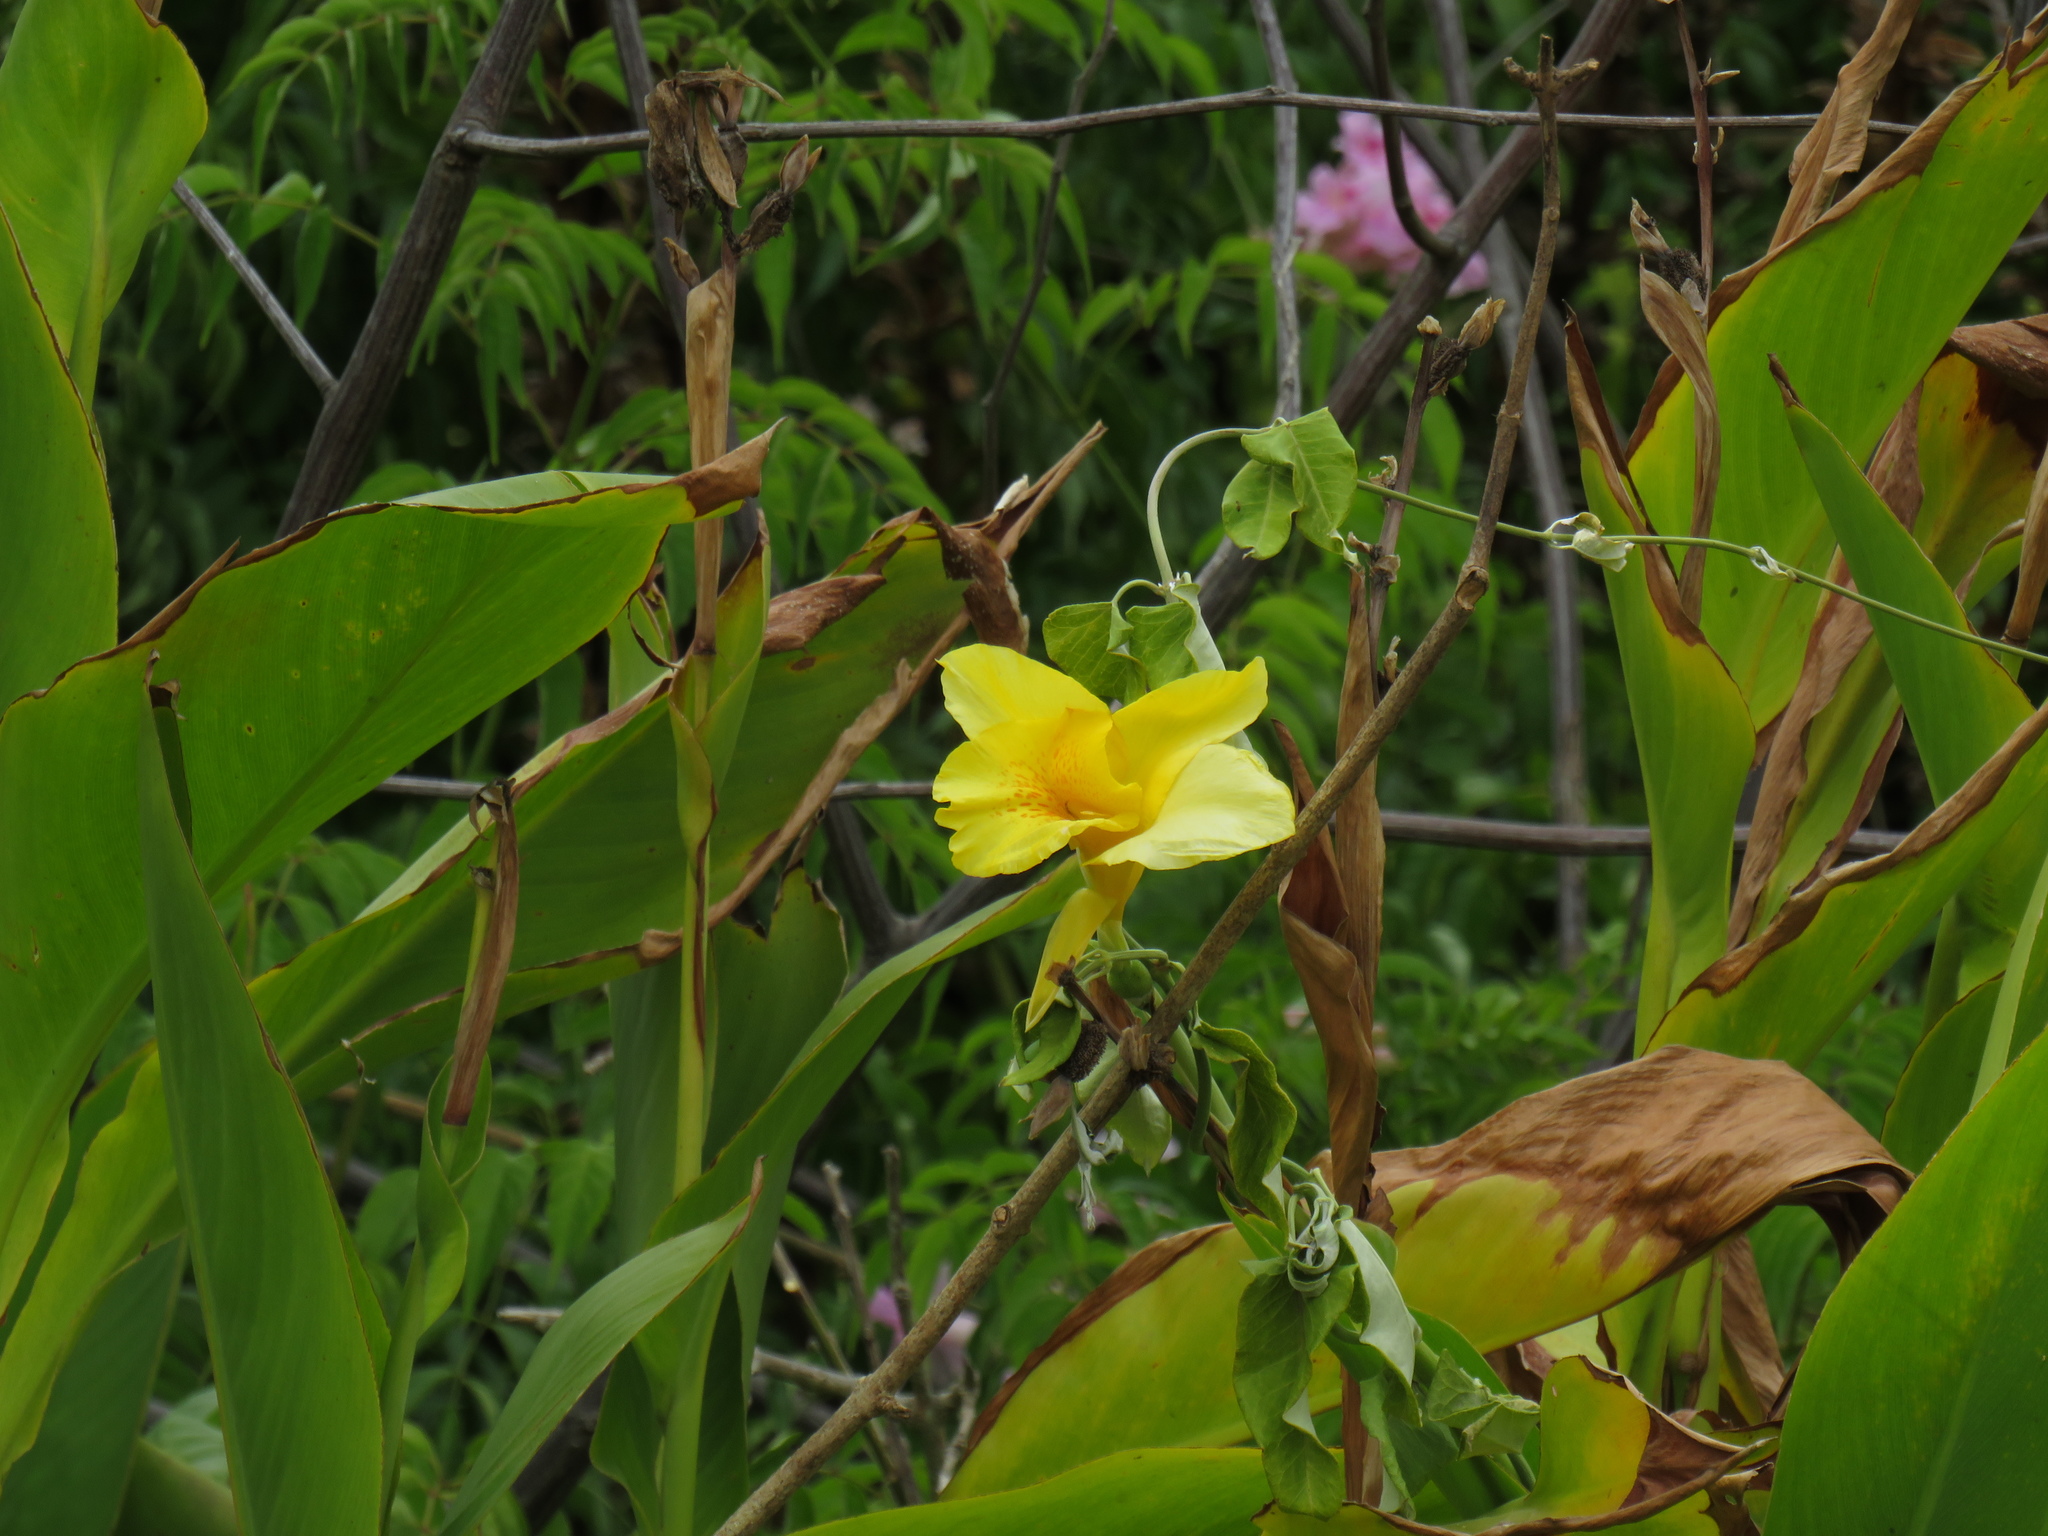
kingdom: Plantae
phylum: Tracheophyta
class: Liliopsida
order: Zingiberales
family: Cannaceae
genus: Canna
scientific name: Canna hybrida
